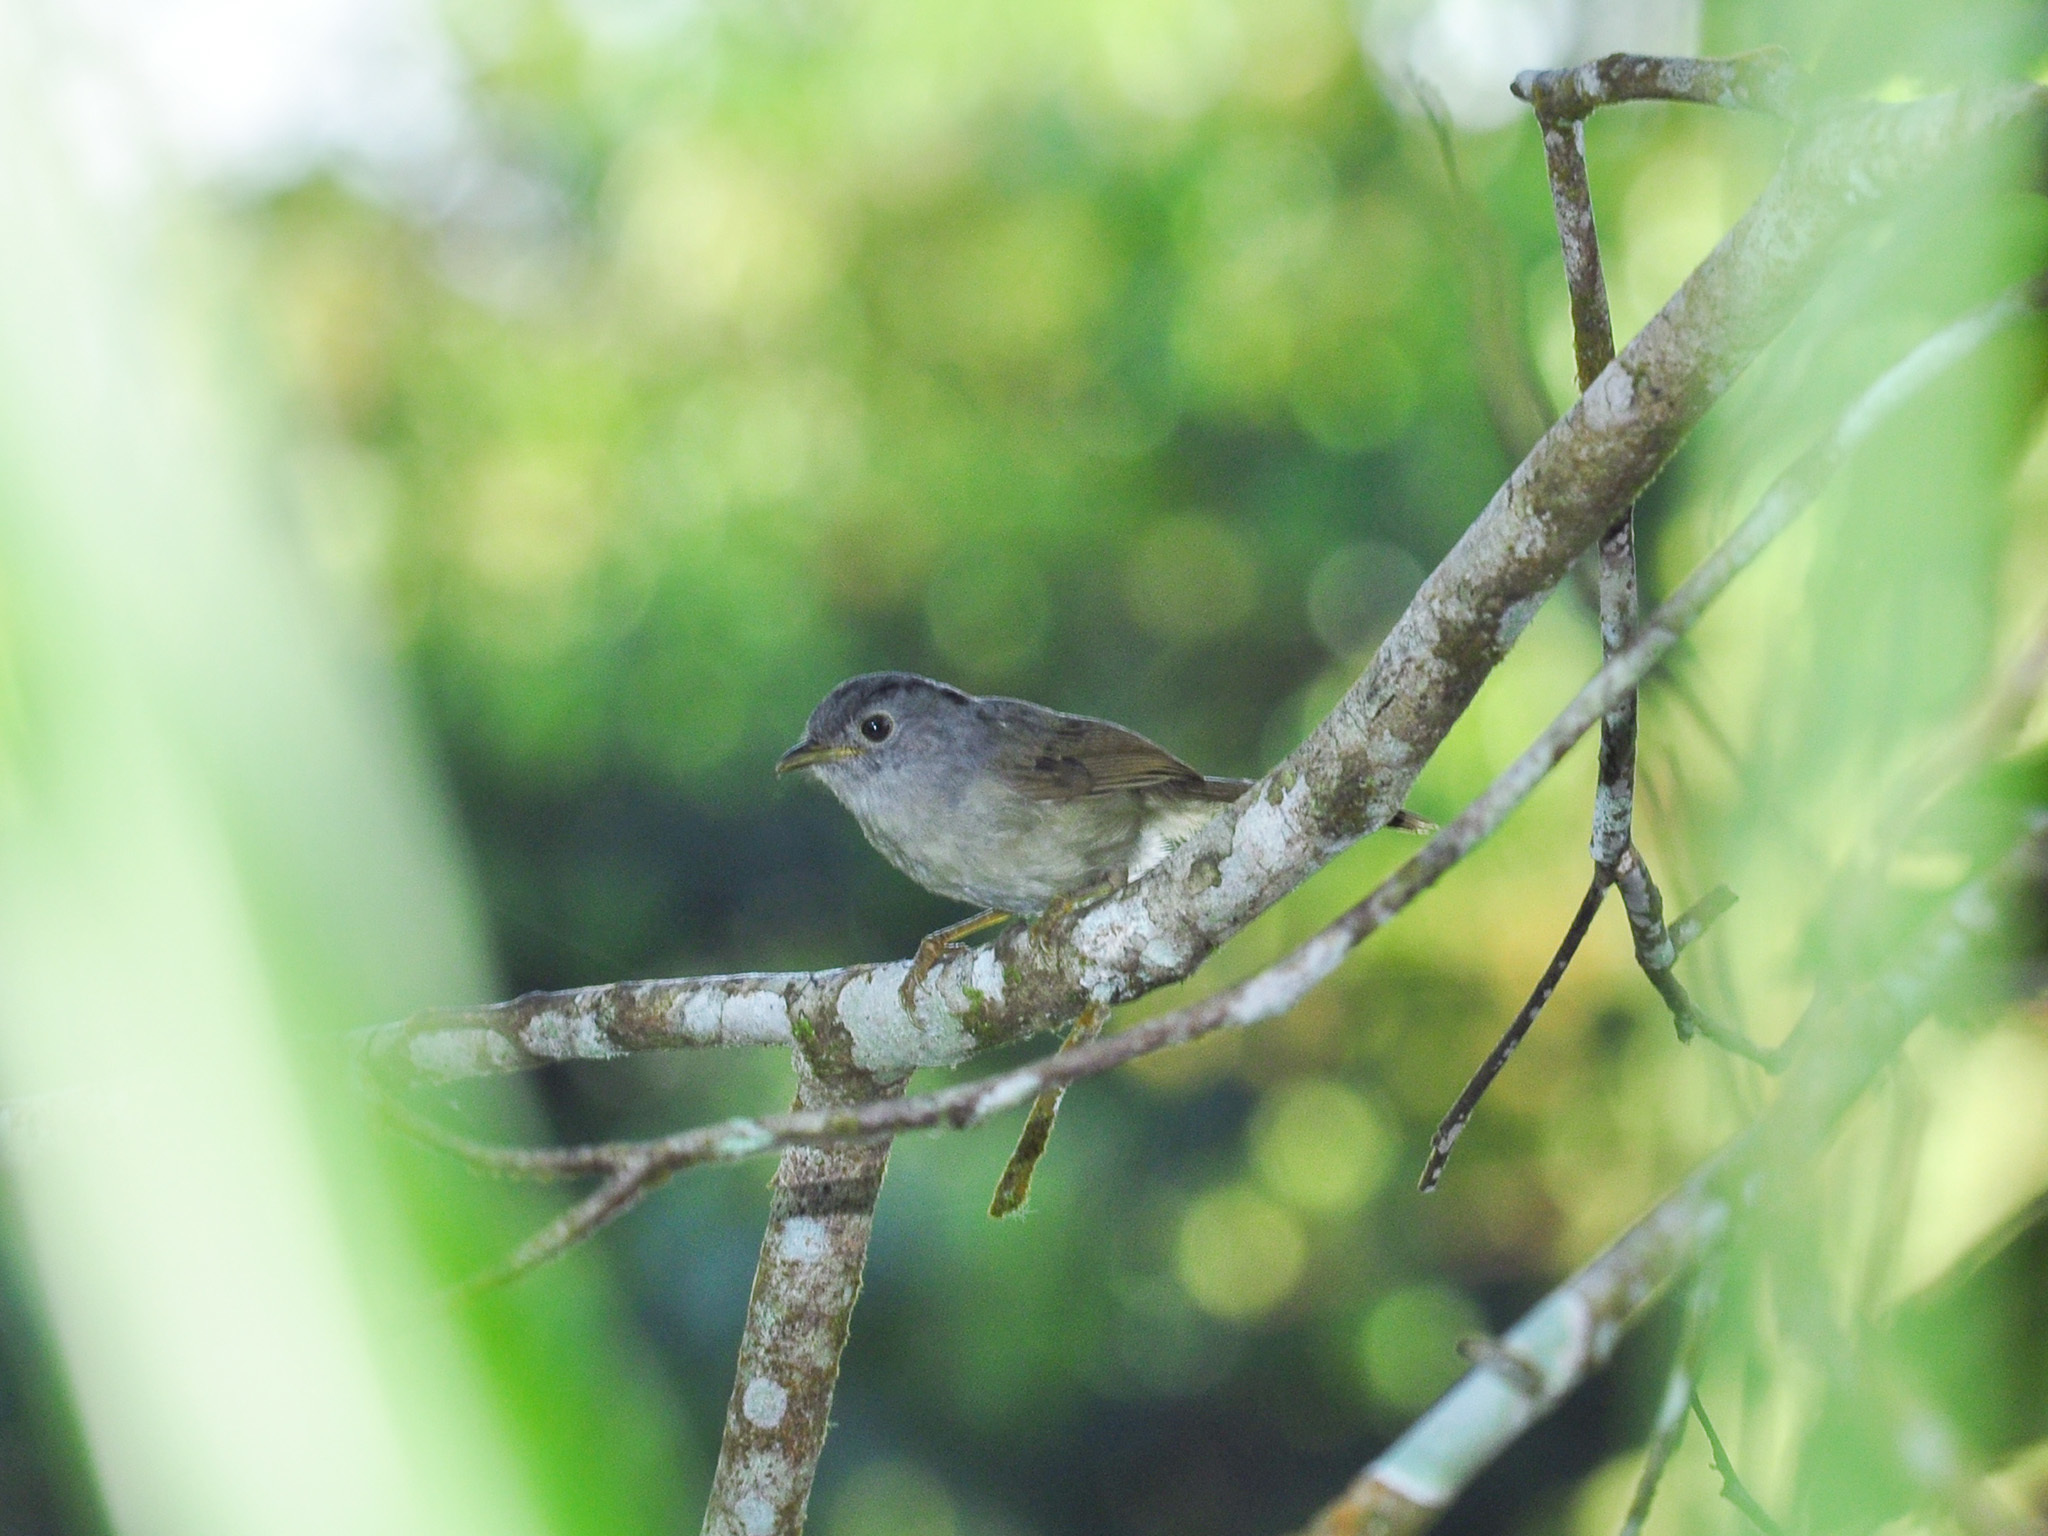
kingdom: Animalia
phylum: Chordata
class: Aves
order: Passeriformes
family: Pellorneidae
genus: Alcippe
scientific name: Alcippe peracensis
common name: Mountain fulvetta
